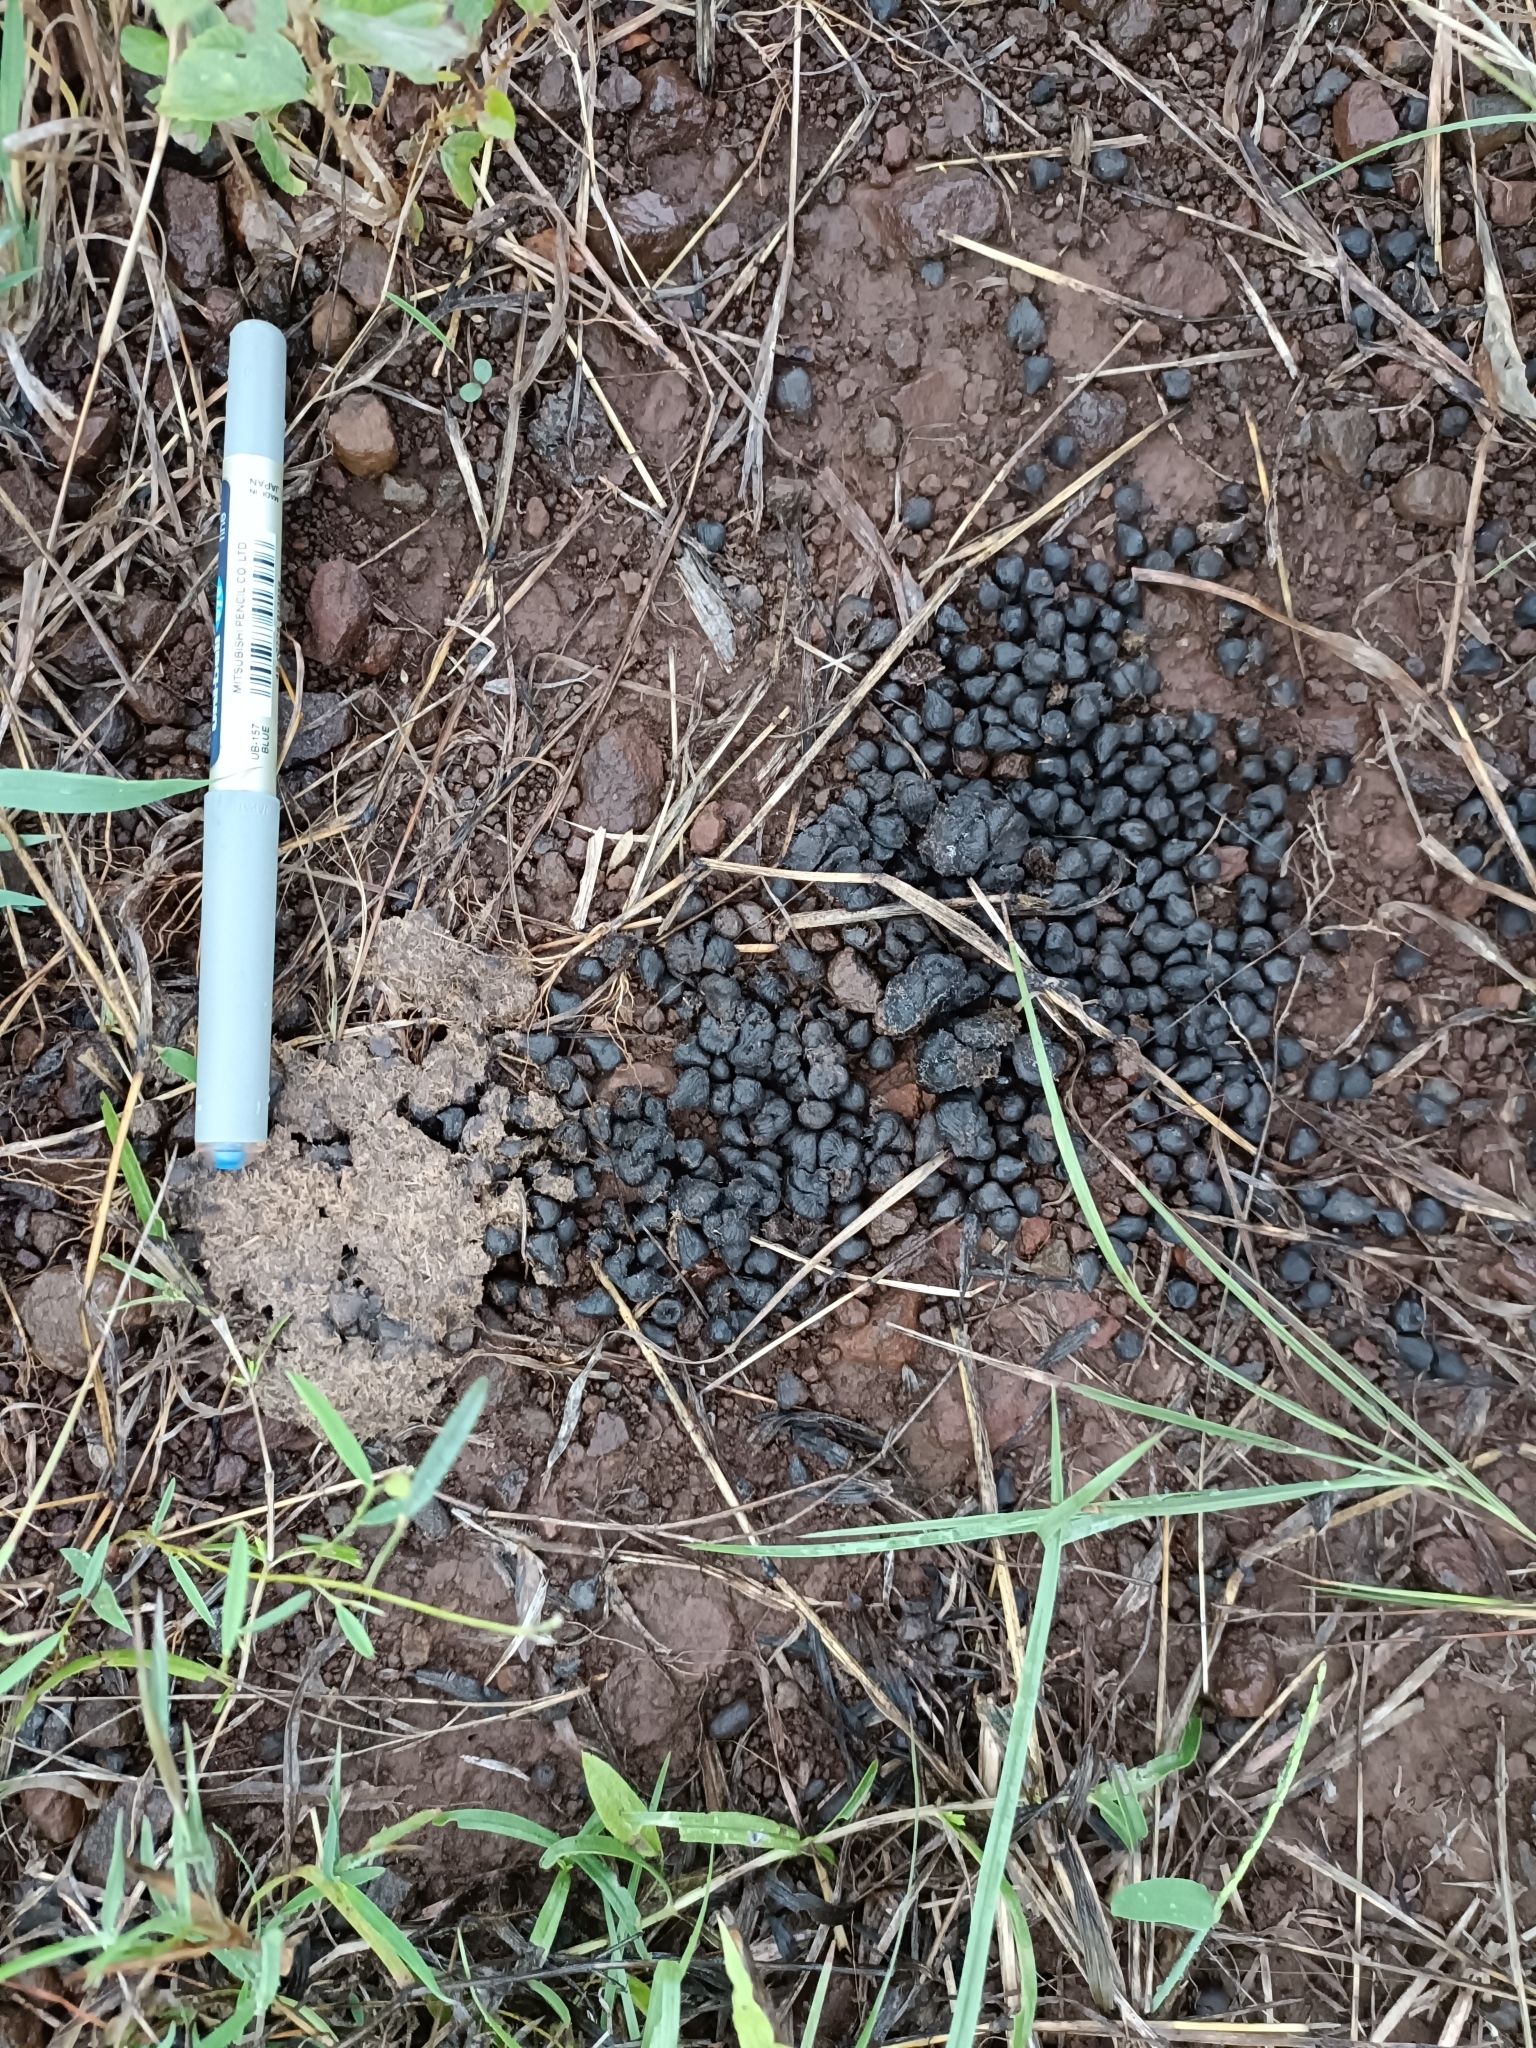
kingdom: Animalia
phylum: Chordata
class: Mammalia
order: Artiodactyla
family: Bovidae
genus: Gazella
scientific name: Gazella bennettii
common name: Indian gazelle
